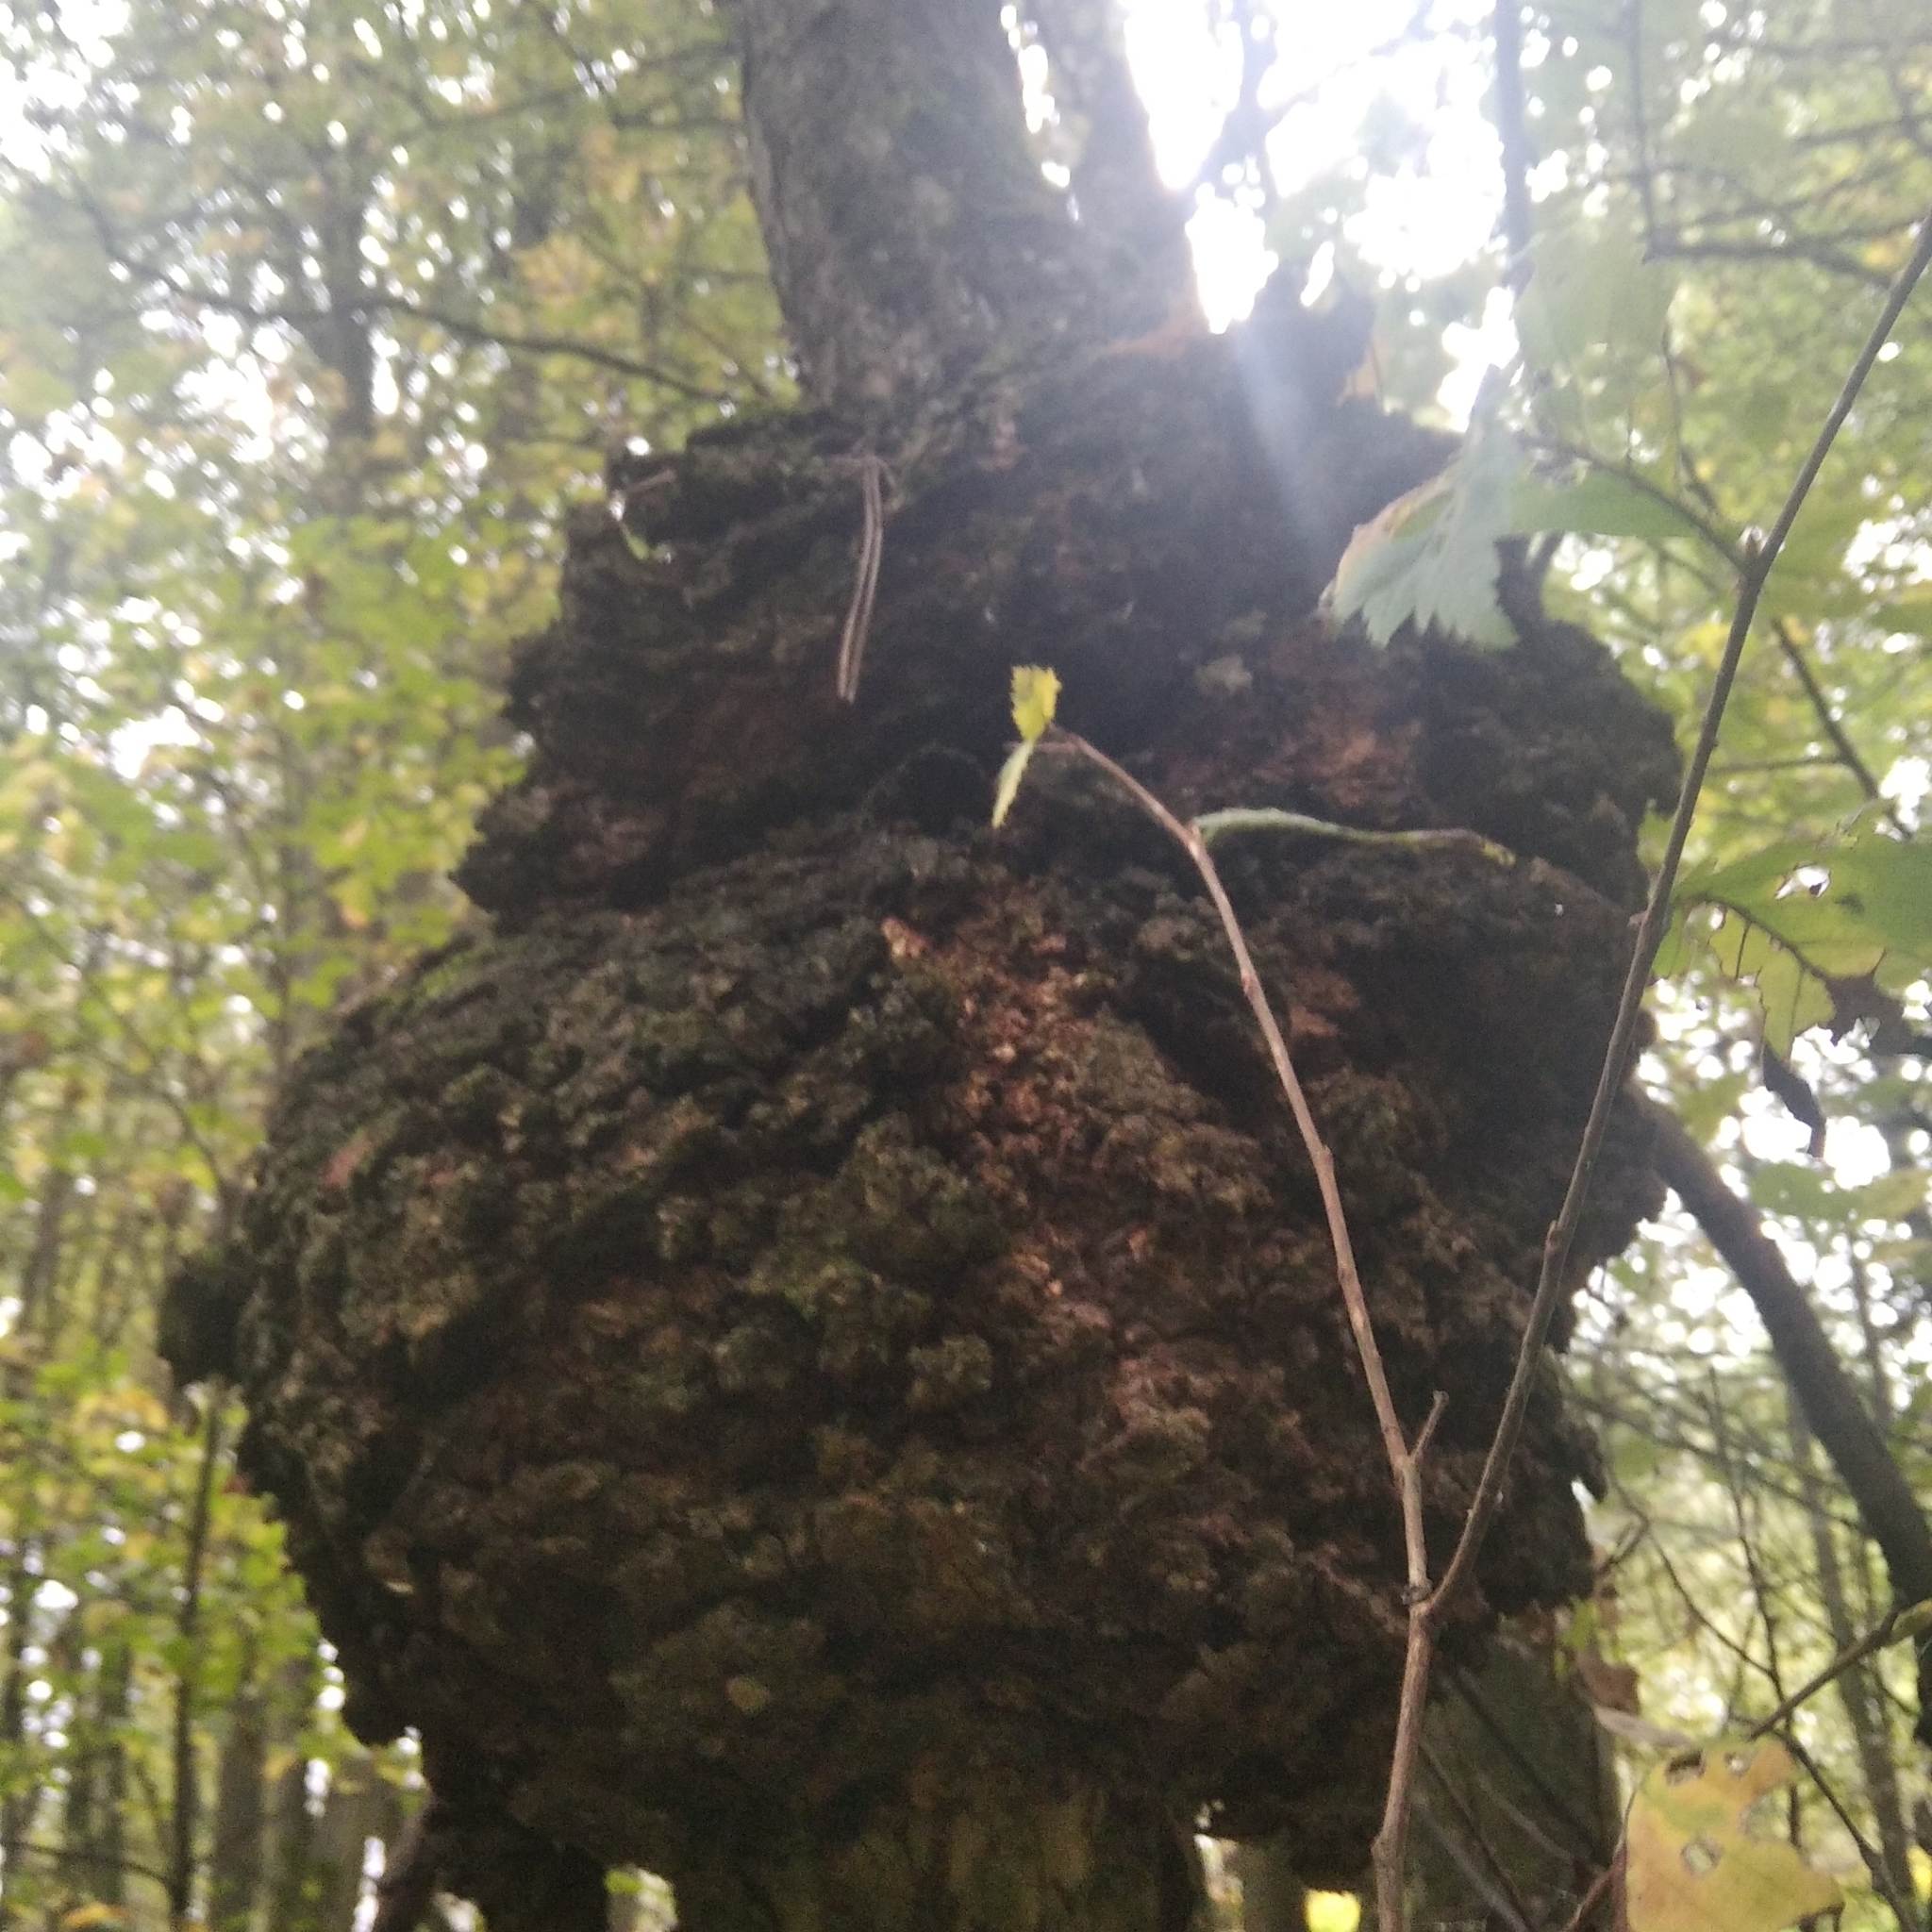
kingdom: Bacteria
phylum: Proteobacteria
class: Alphaproteobacteria
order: Rhizobiales
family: Rhizobiaceae
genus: Rhizobium
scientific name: Rhizobium Agrobacterium radiobacter
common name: Bacterial crown gall
